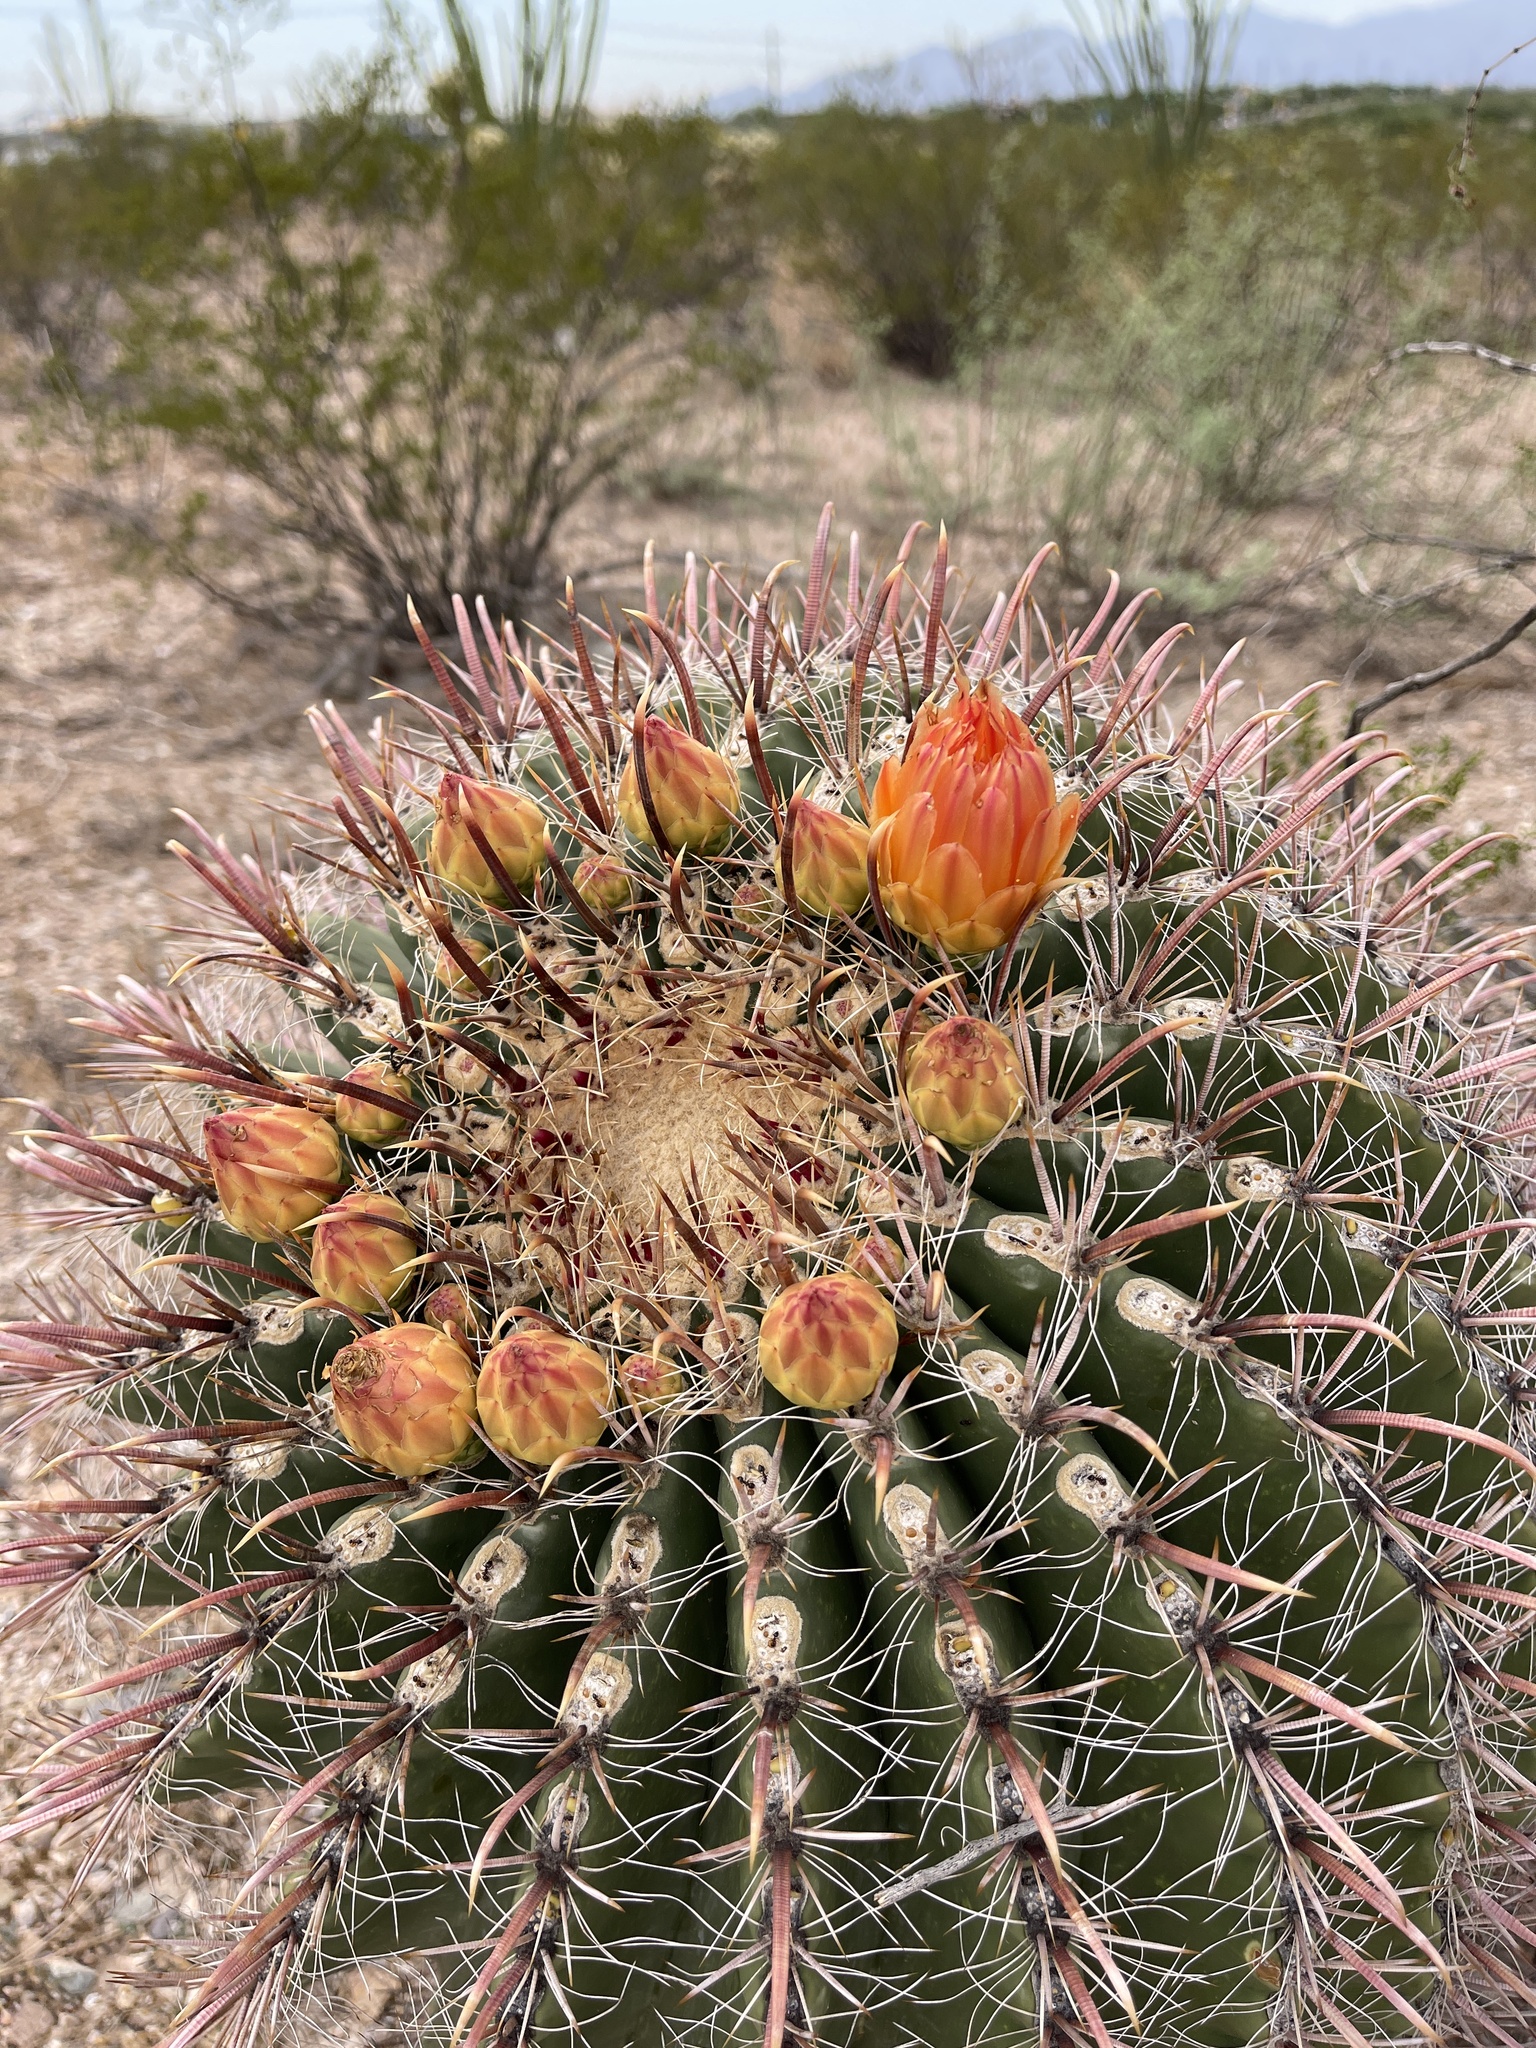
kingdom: Plantae
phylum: Tracheophyta
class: Magnoliopsida
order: Caryophyllales
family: Cactaceae
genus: Ferocactus
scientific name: Ferocactus wislizeni
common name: Candy barrel cactus
